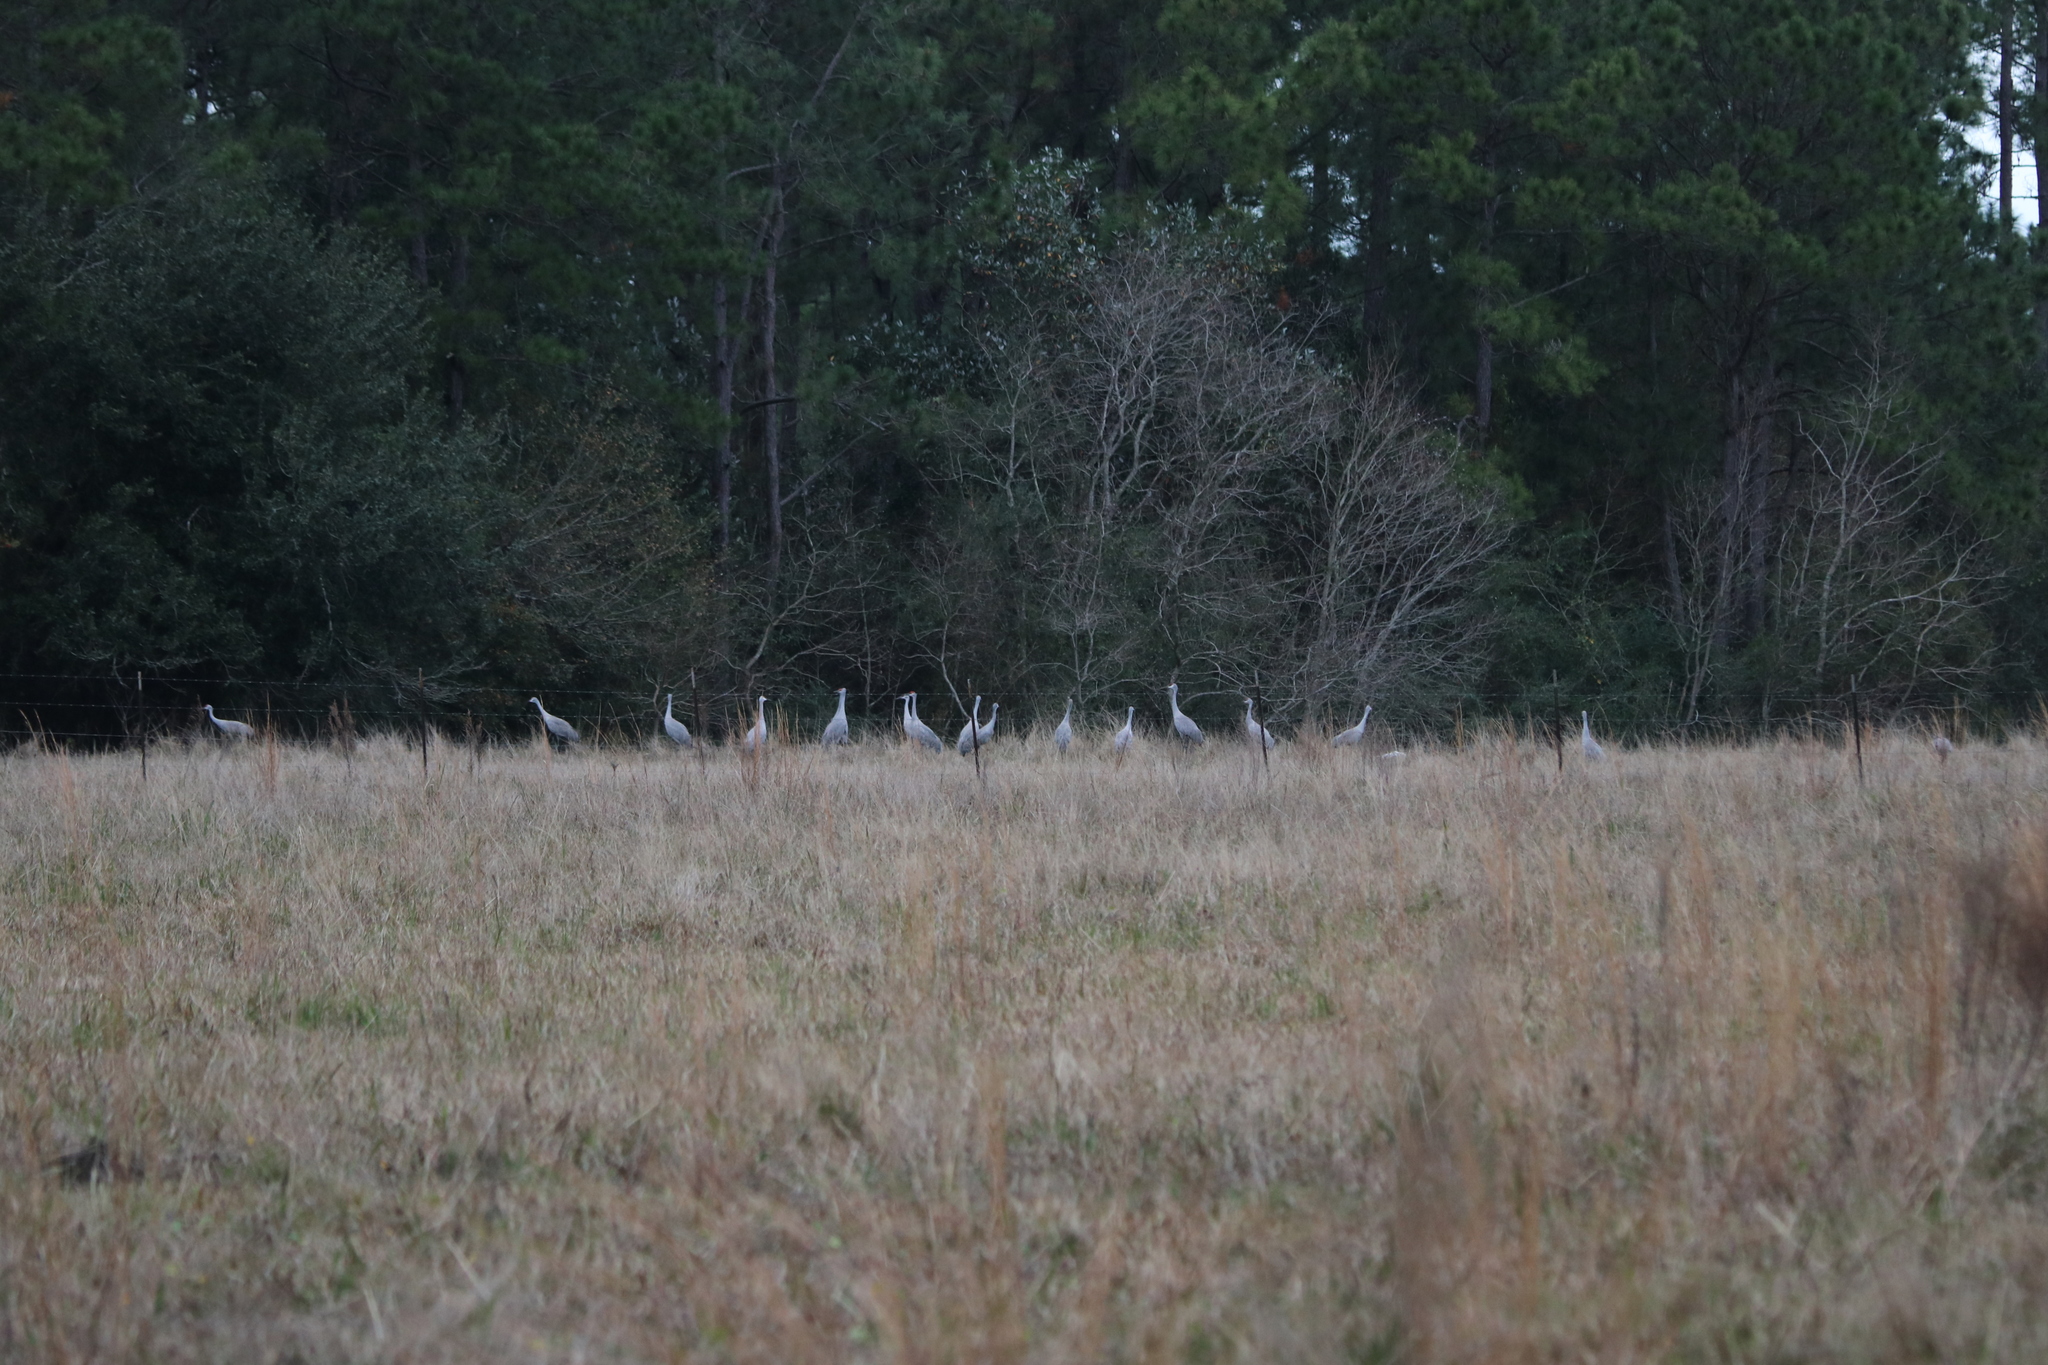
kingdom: Animalia
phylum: Chordata
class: Aves
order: Gruiformes
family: Gruidae
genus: Grus
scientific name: Grus canadensis
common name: Sandhill crane
